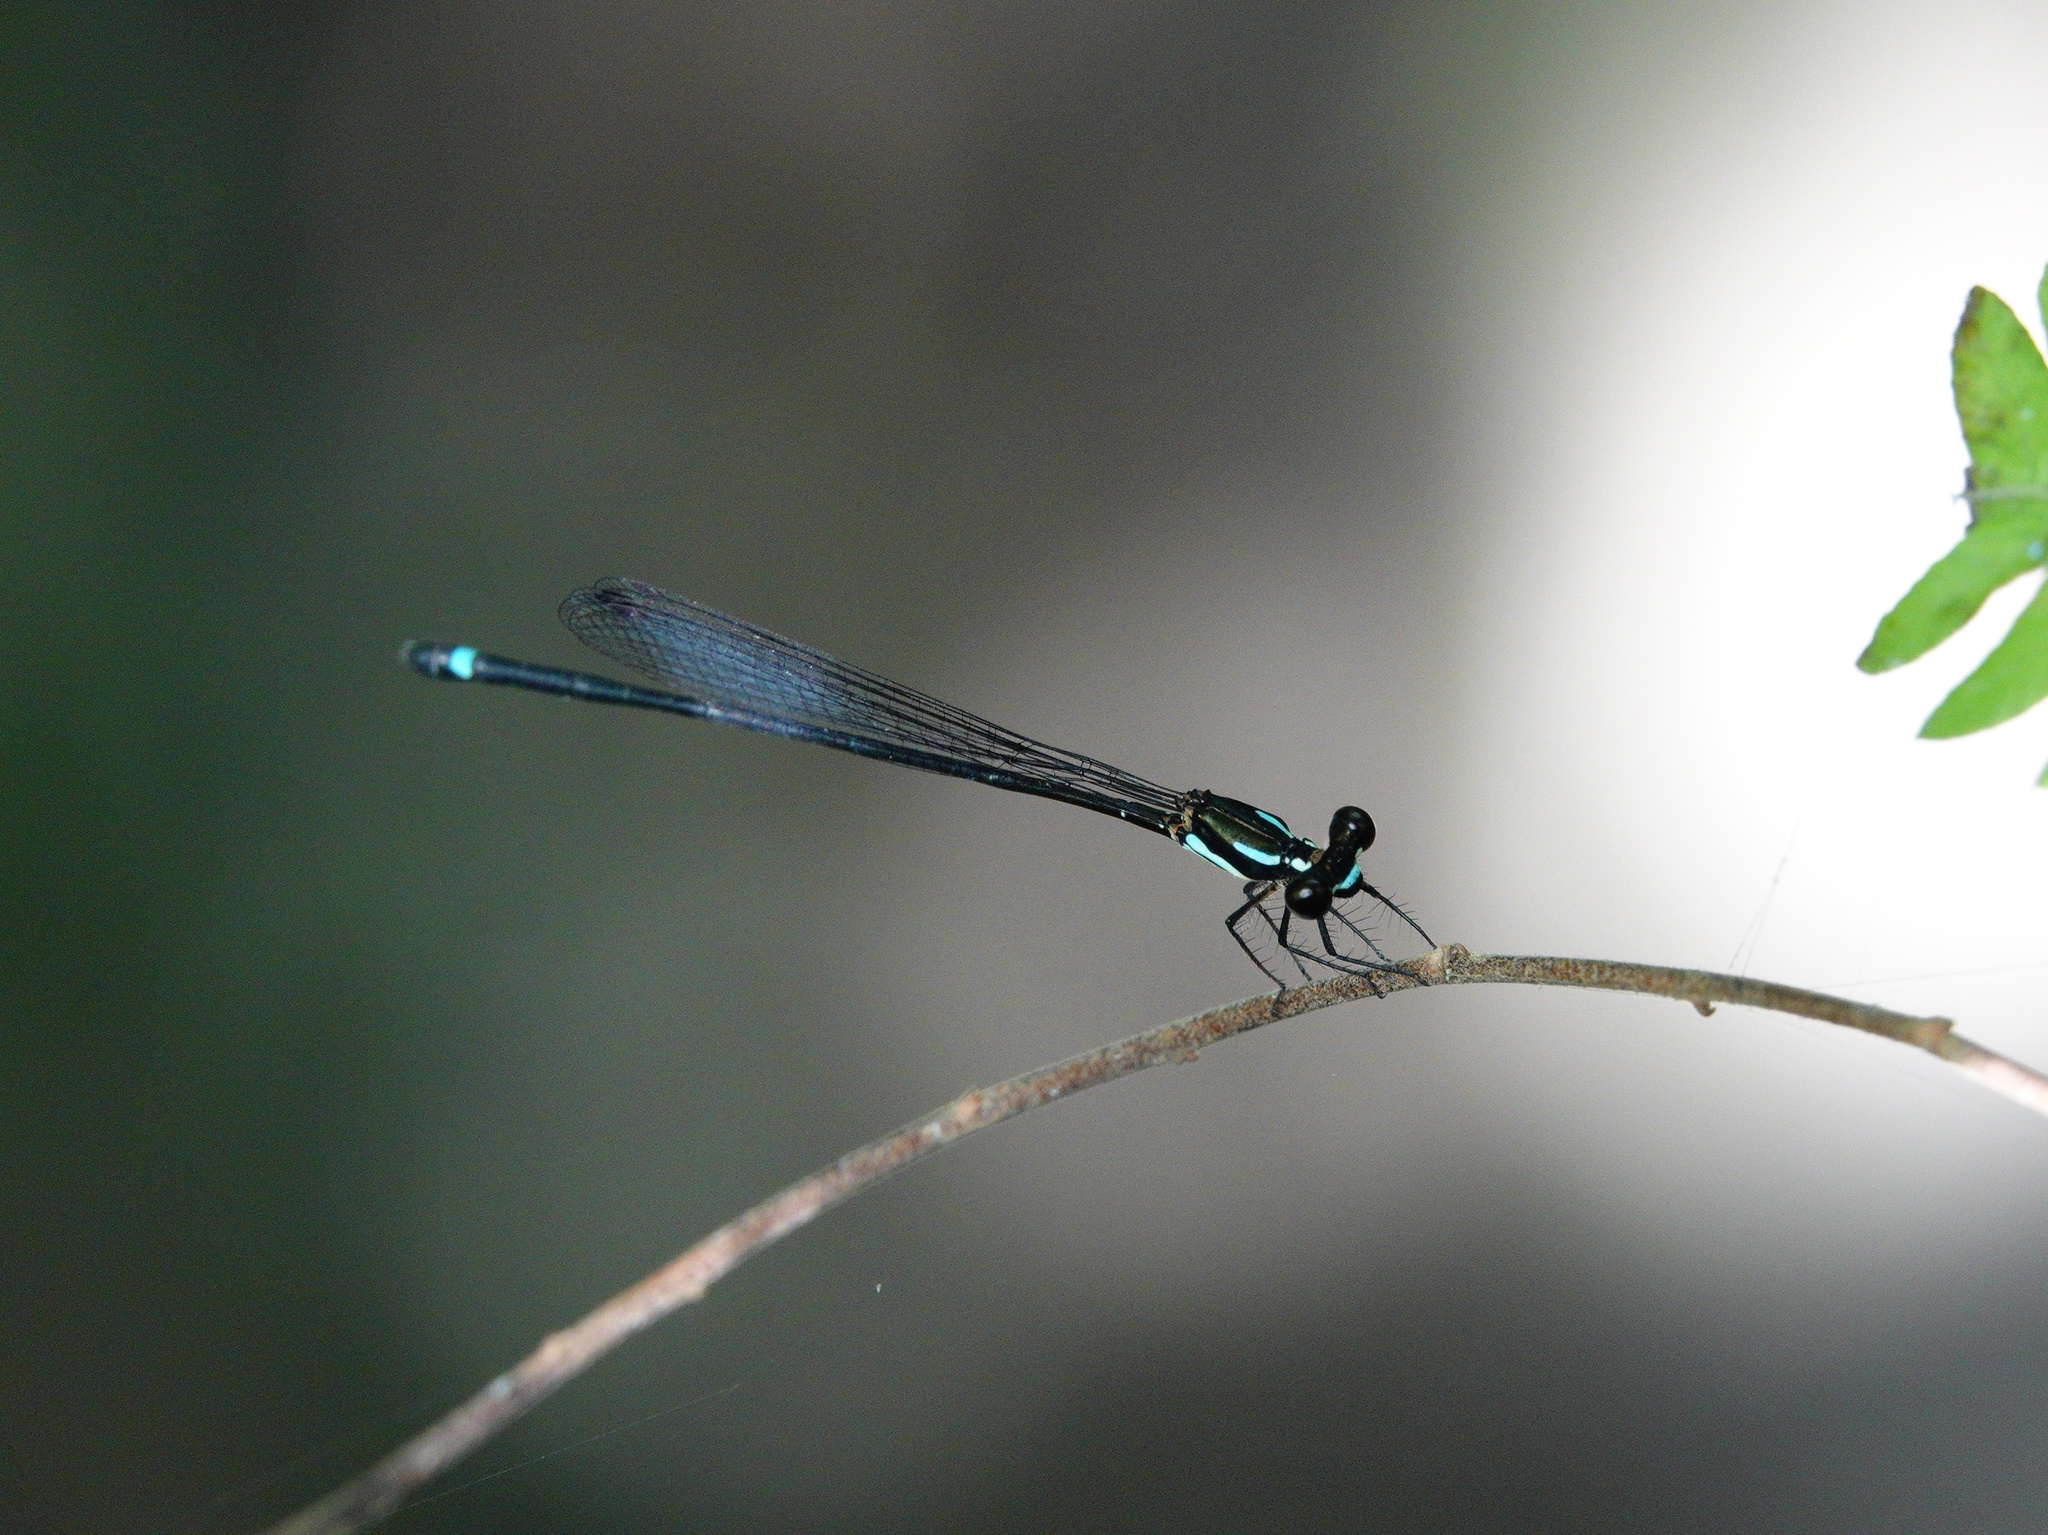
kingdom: Animalia
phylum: Arthropoda
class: Insecta
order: Odonata
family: Platycnemididae
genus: Nososticta
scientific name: Nososticta insignis
